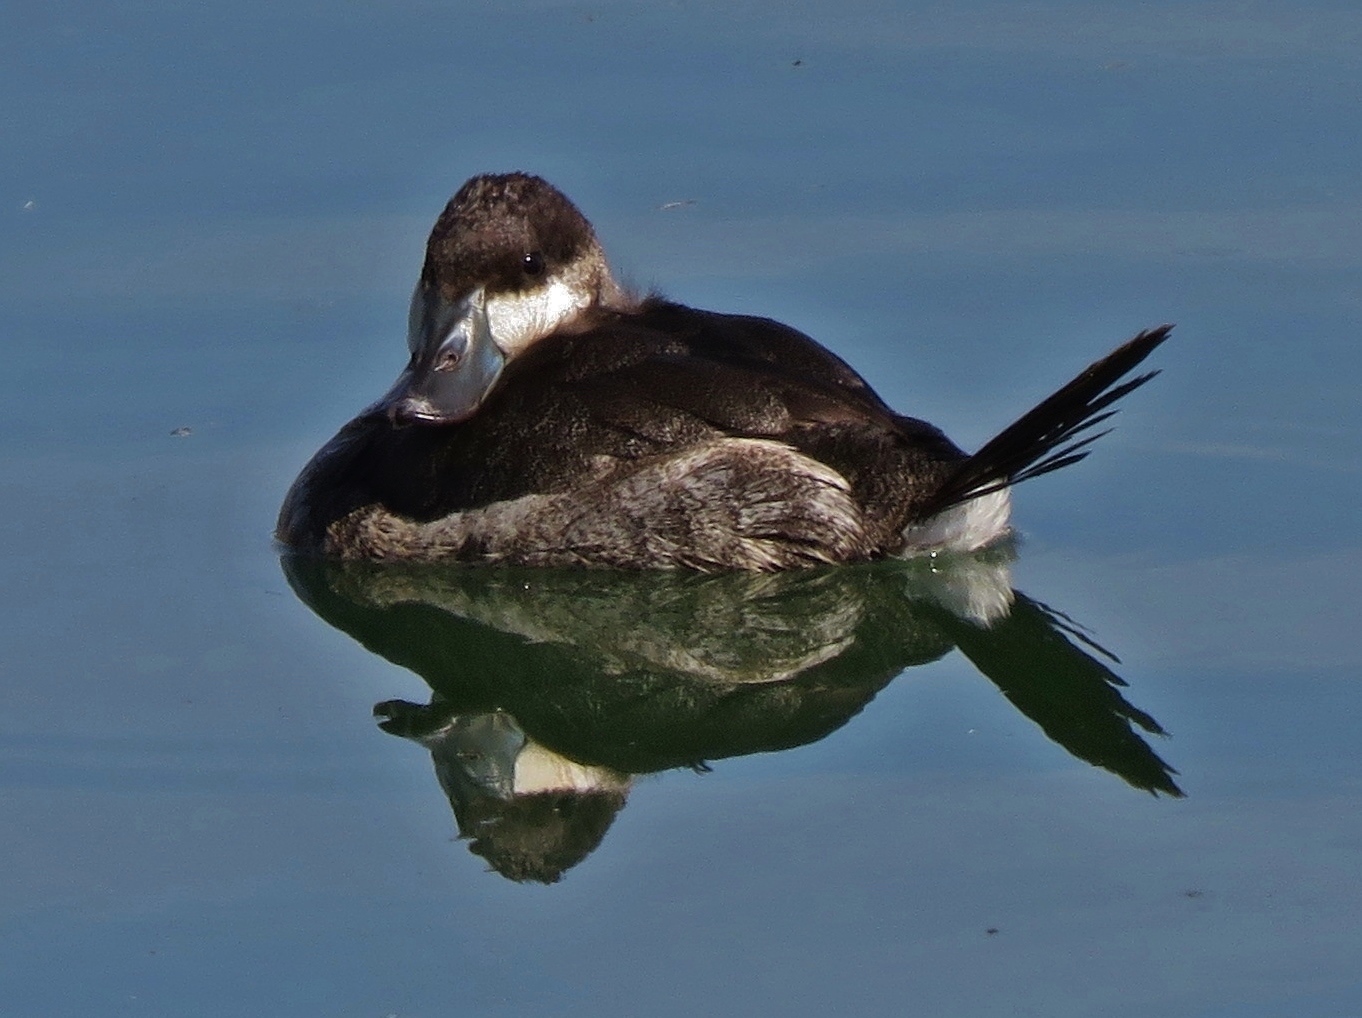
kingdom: Animalia
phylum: Chordata
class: Aves
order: Anseriformes
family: Anatidae
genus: Oxyura
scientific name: Oxyura jamaicensis
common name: Ruddy duck
